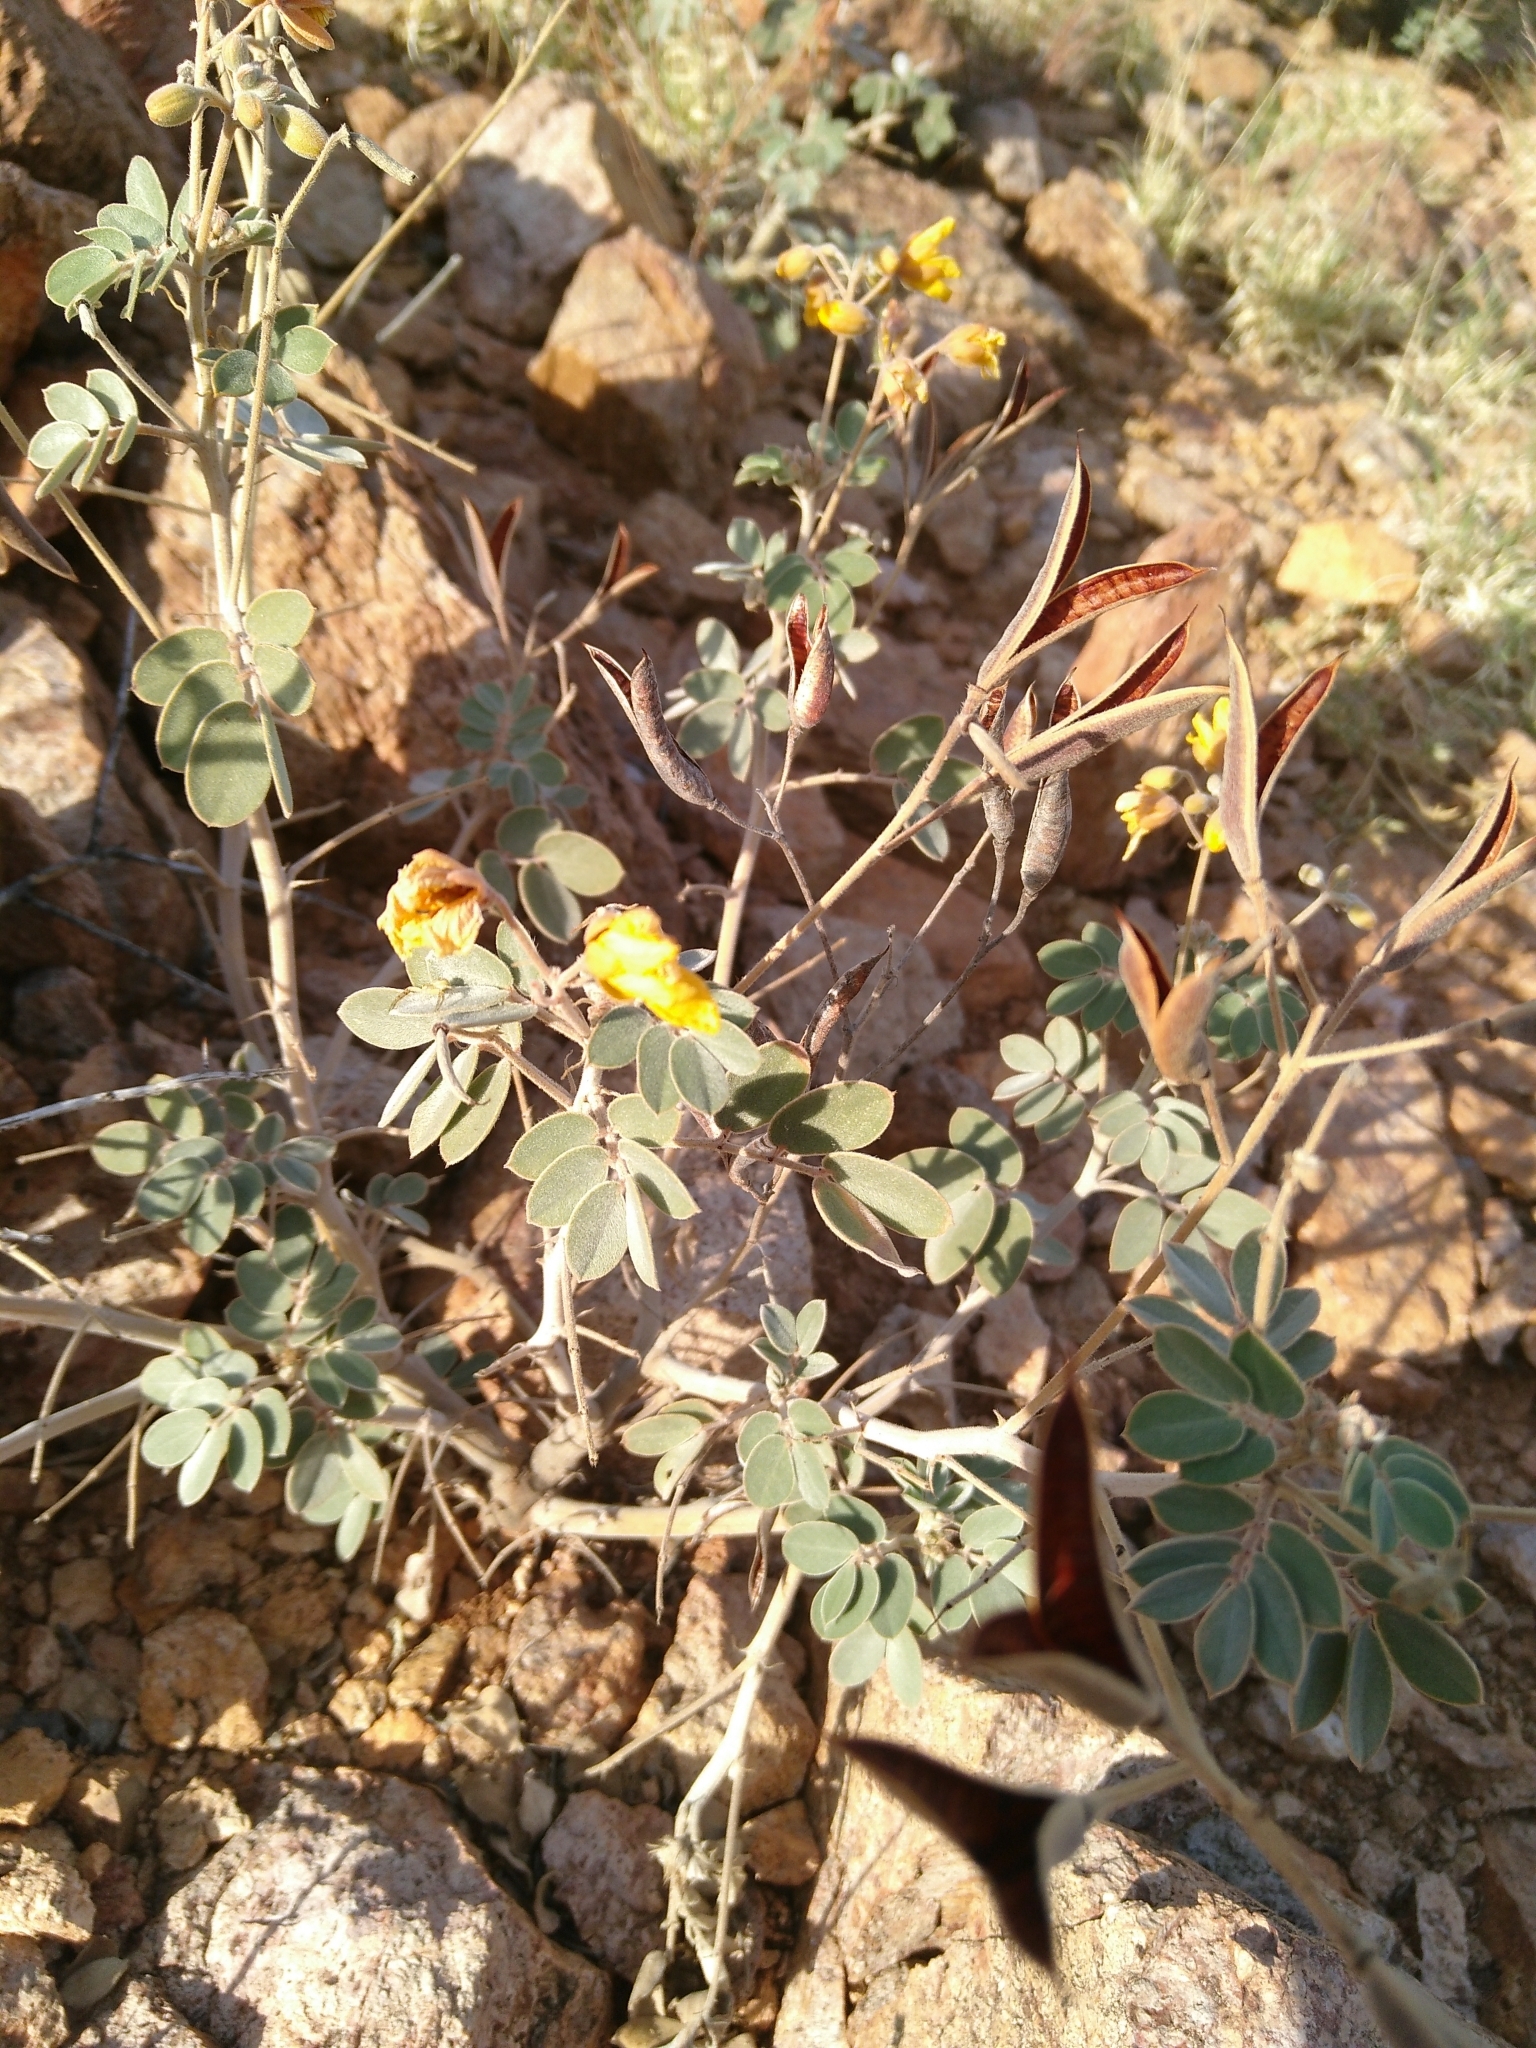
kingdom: Plantae
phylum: Tracheophyta
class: Magnoliopsida
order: Fabales
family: Fabaceae
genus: Senna
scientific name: Senna covesii
